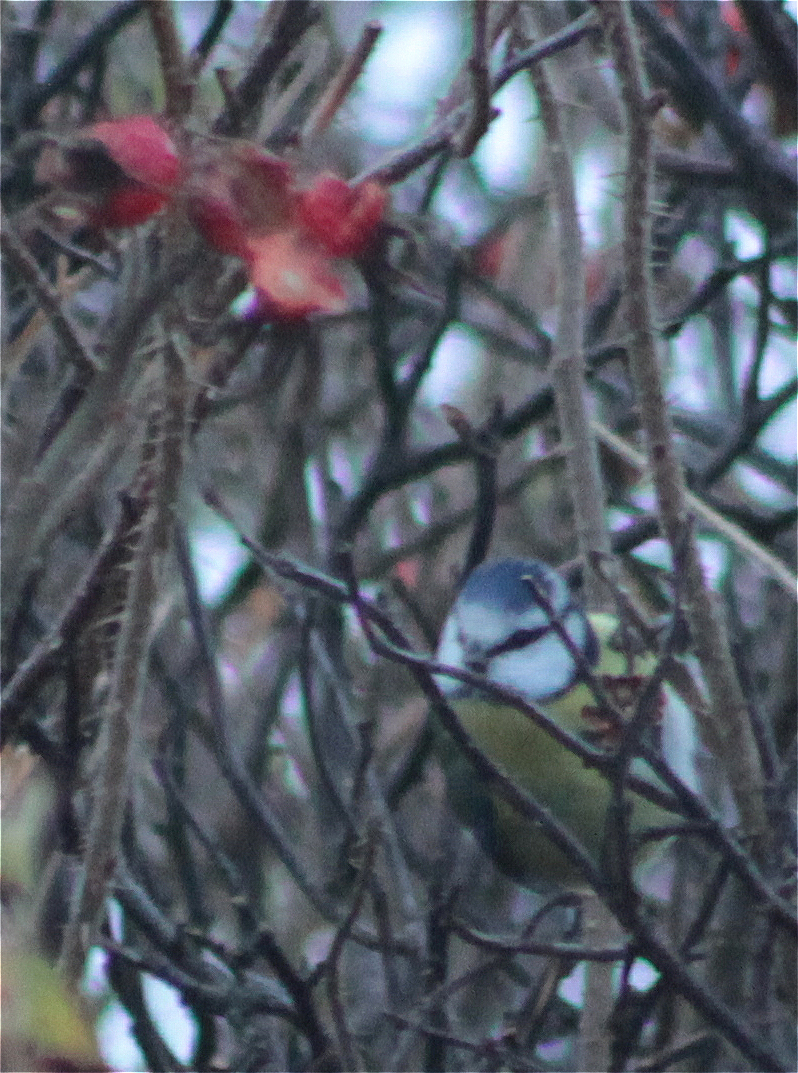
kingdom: Animalia
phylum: Chordata
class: Aves
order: Passeriformes
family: Paridae
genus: Cyanistes
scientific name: Cyanistes caeruleus
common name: Eurasian blue tit
